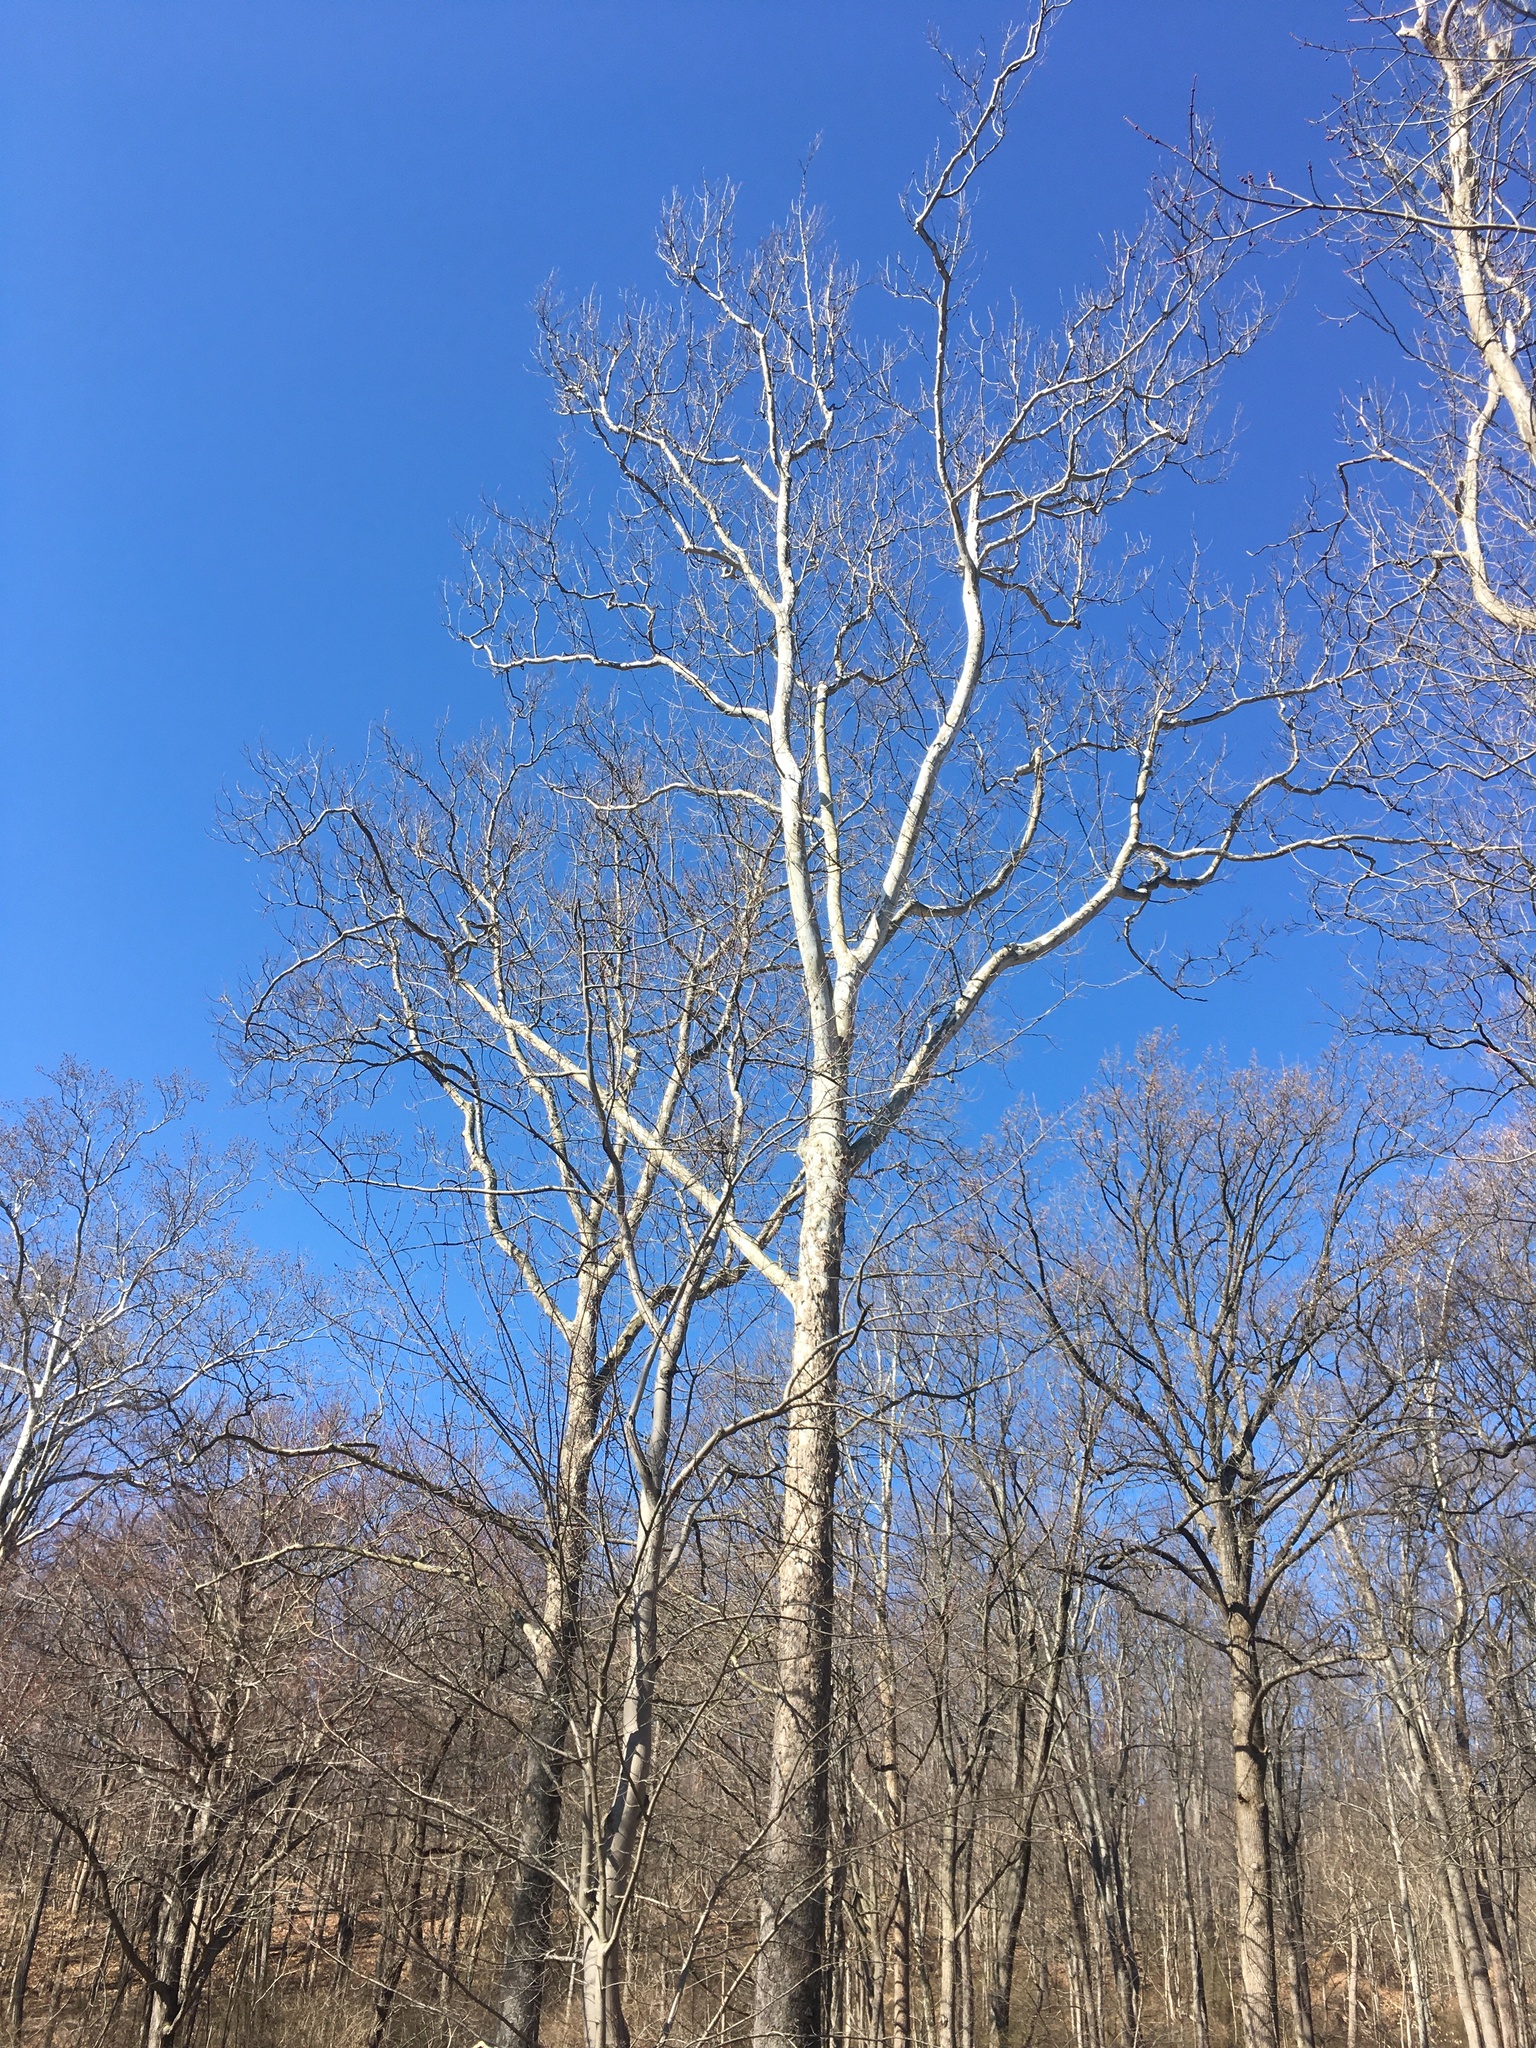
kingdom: Plantae
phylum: Tracheophyta
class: Magnoliopsida
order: Proteales
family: Platanaceae
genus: Platanus
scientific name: Platanus occidentalis
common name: American sycamore
